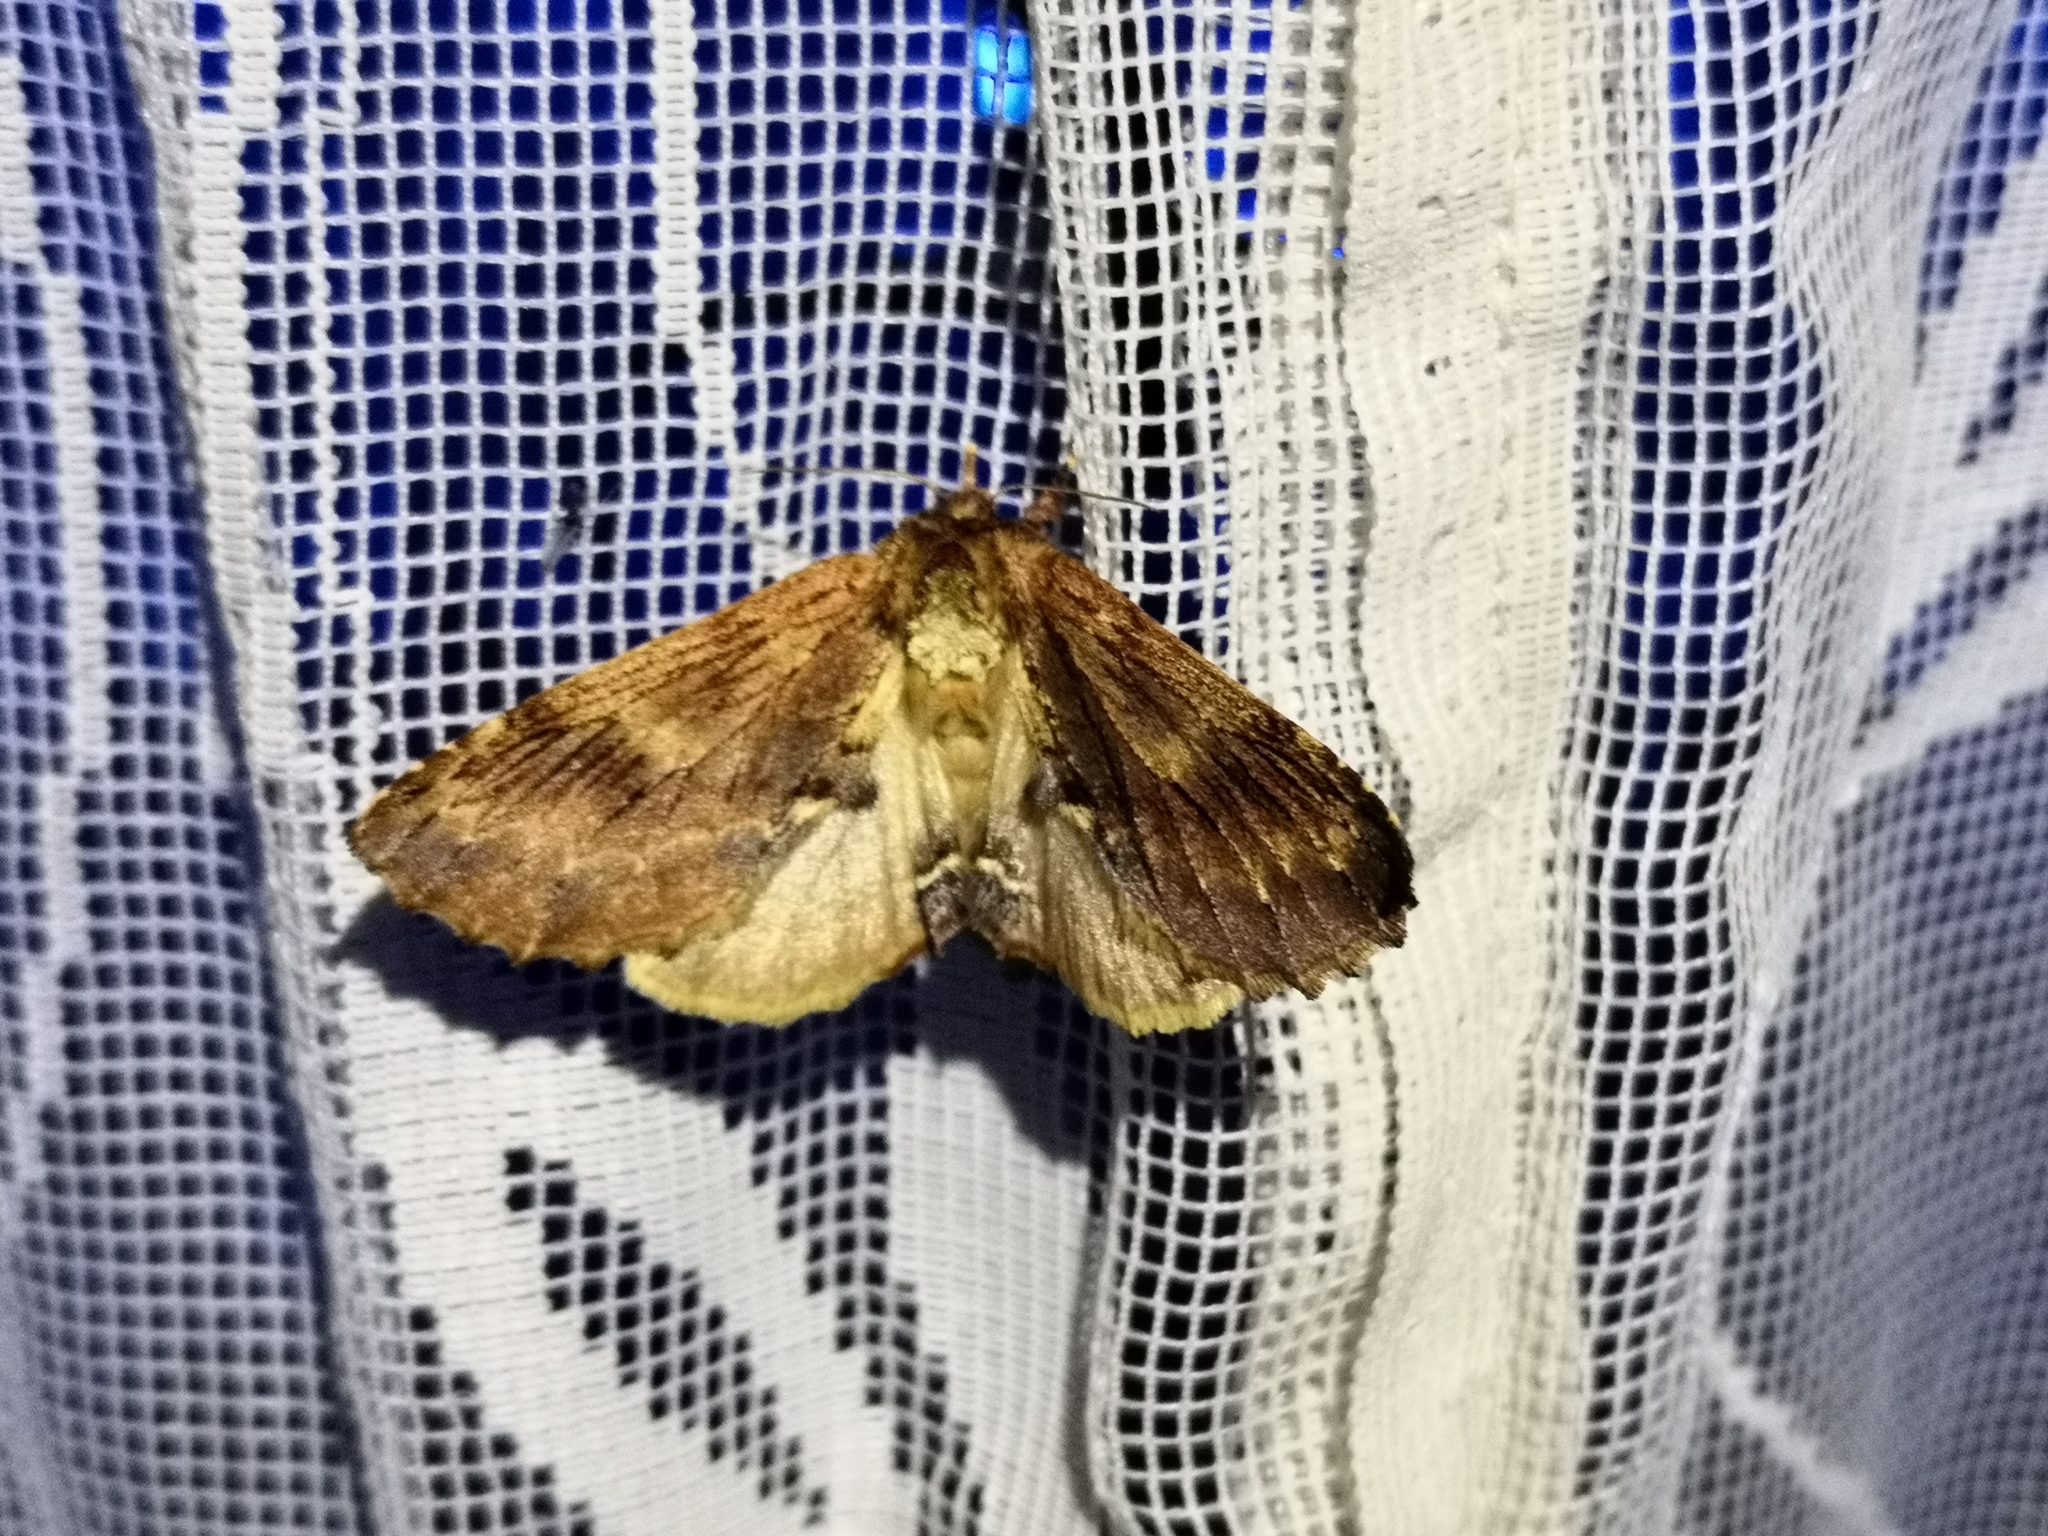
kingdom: Animalia
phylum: Arthropoda
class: Insecta
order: Lepidoptera
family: Notodontidae
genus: Ptilodon
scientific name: Ptilodon capucina
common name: Coxcomb prominent
